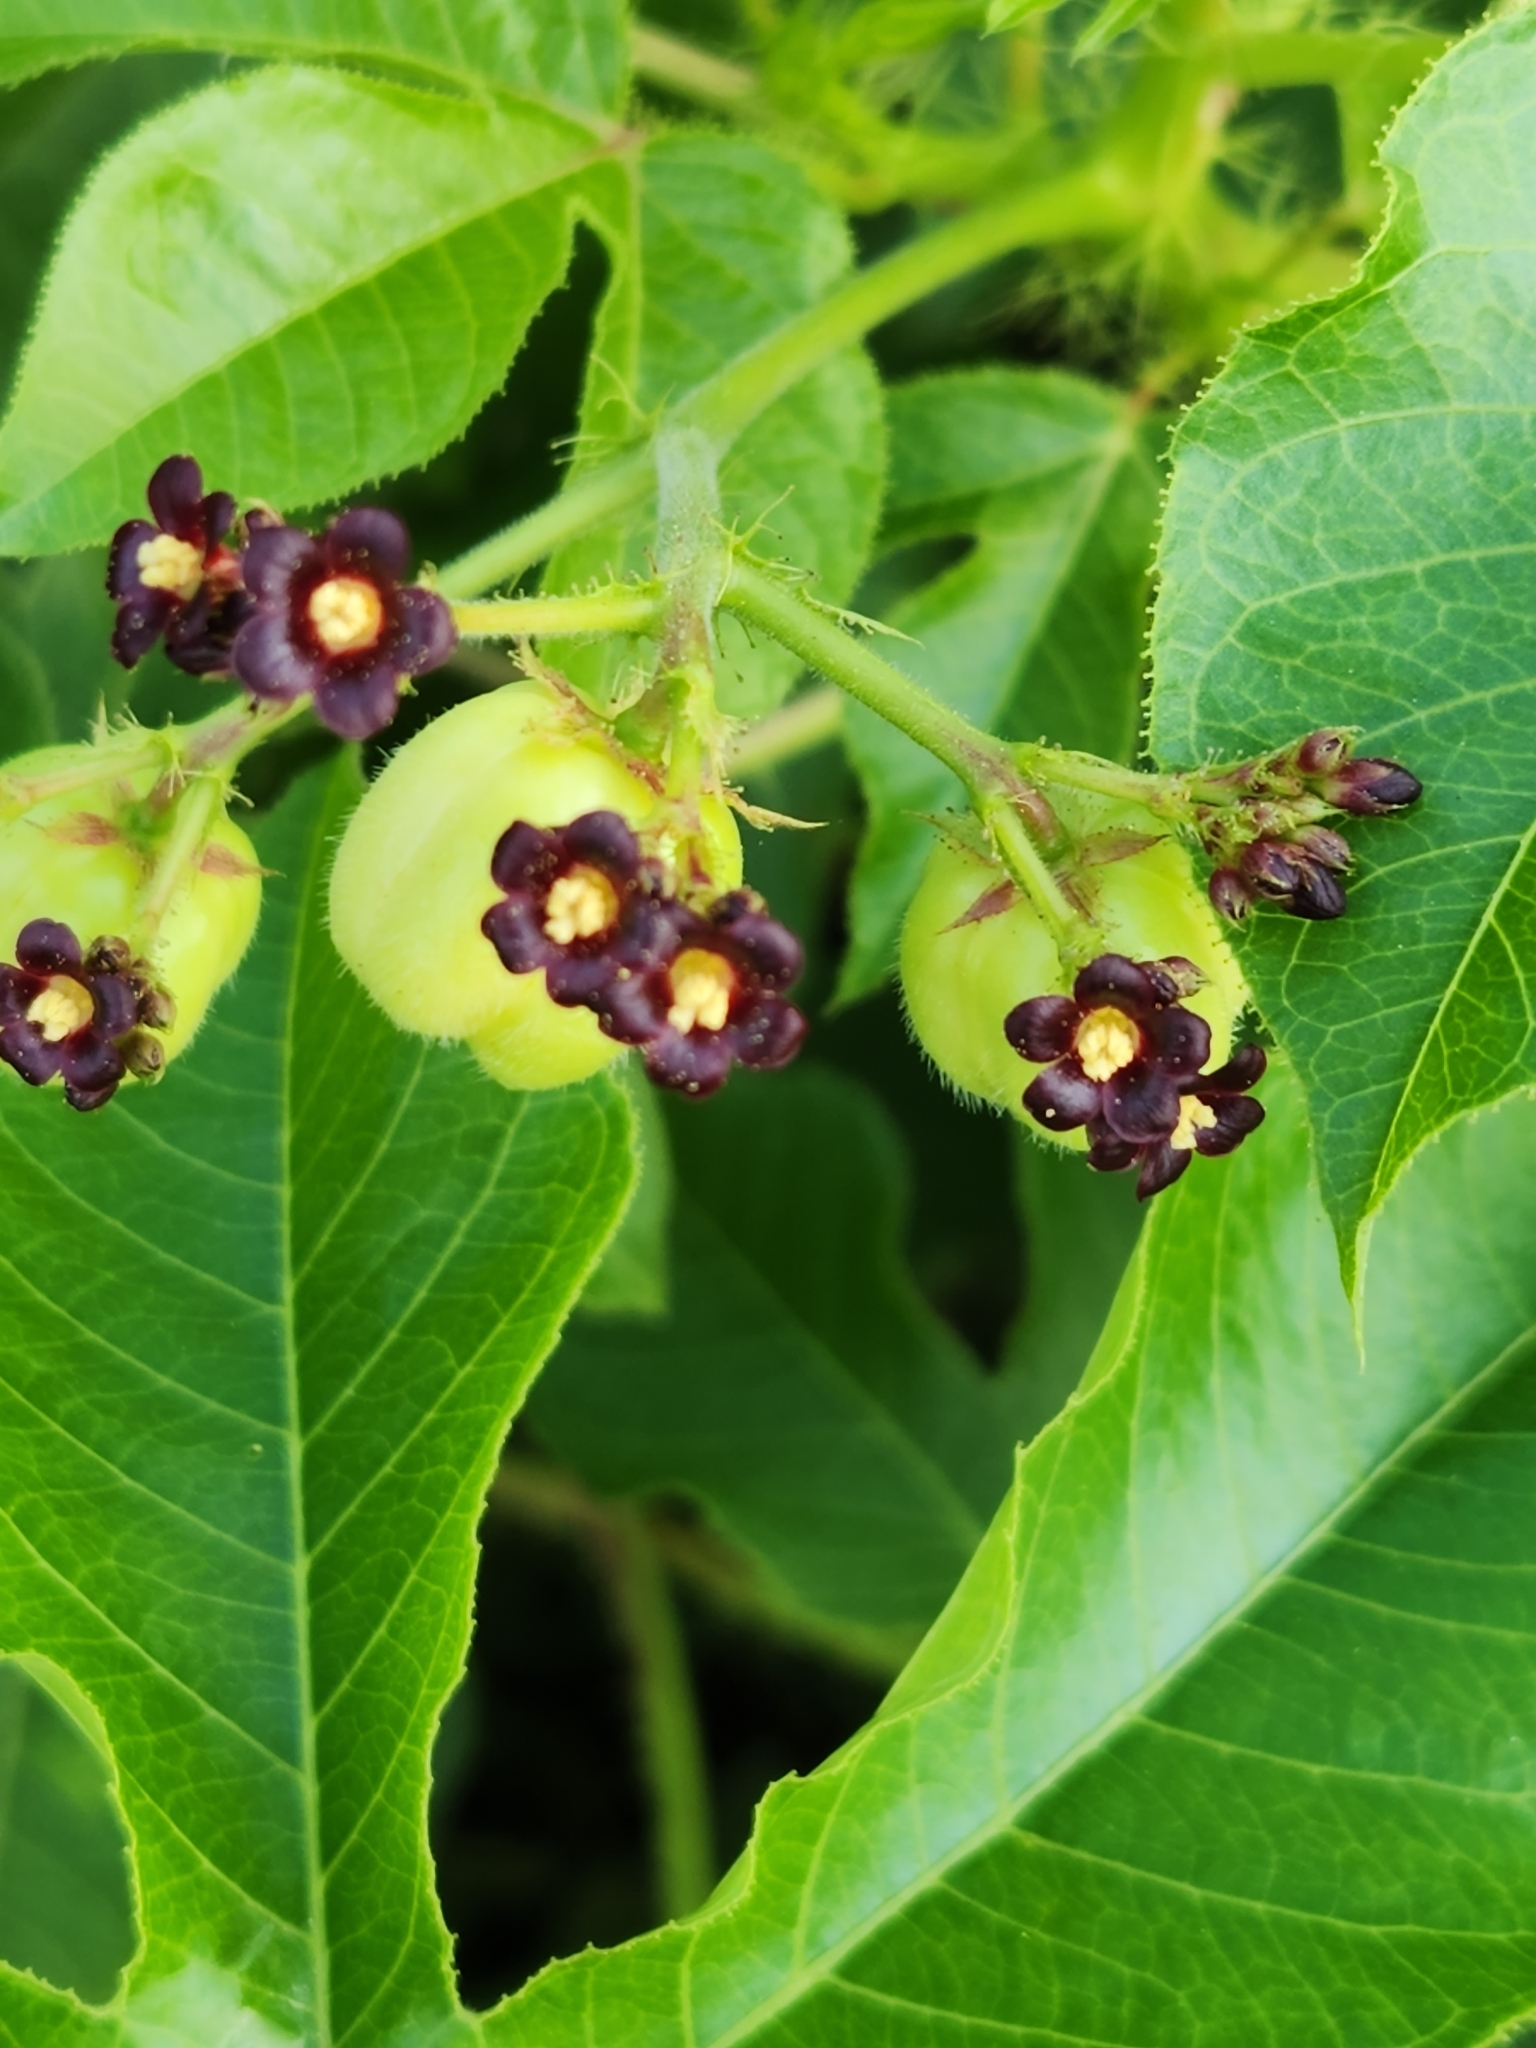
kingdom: Plantae
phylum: Tracheophyta
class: Magnoliopsida
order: Malpighiales
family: Euphorbiaceae
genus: Jatropha
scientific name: Jatropha gossypiifolia
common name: Bellyache bush
